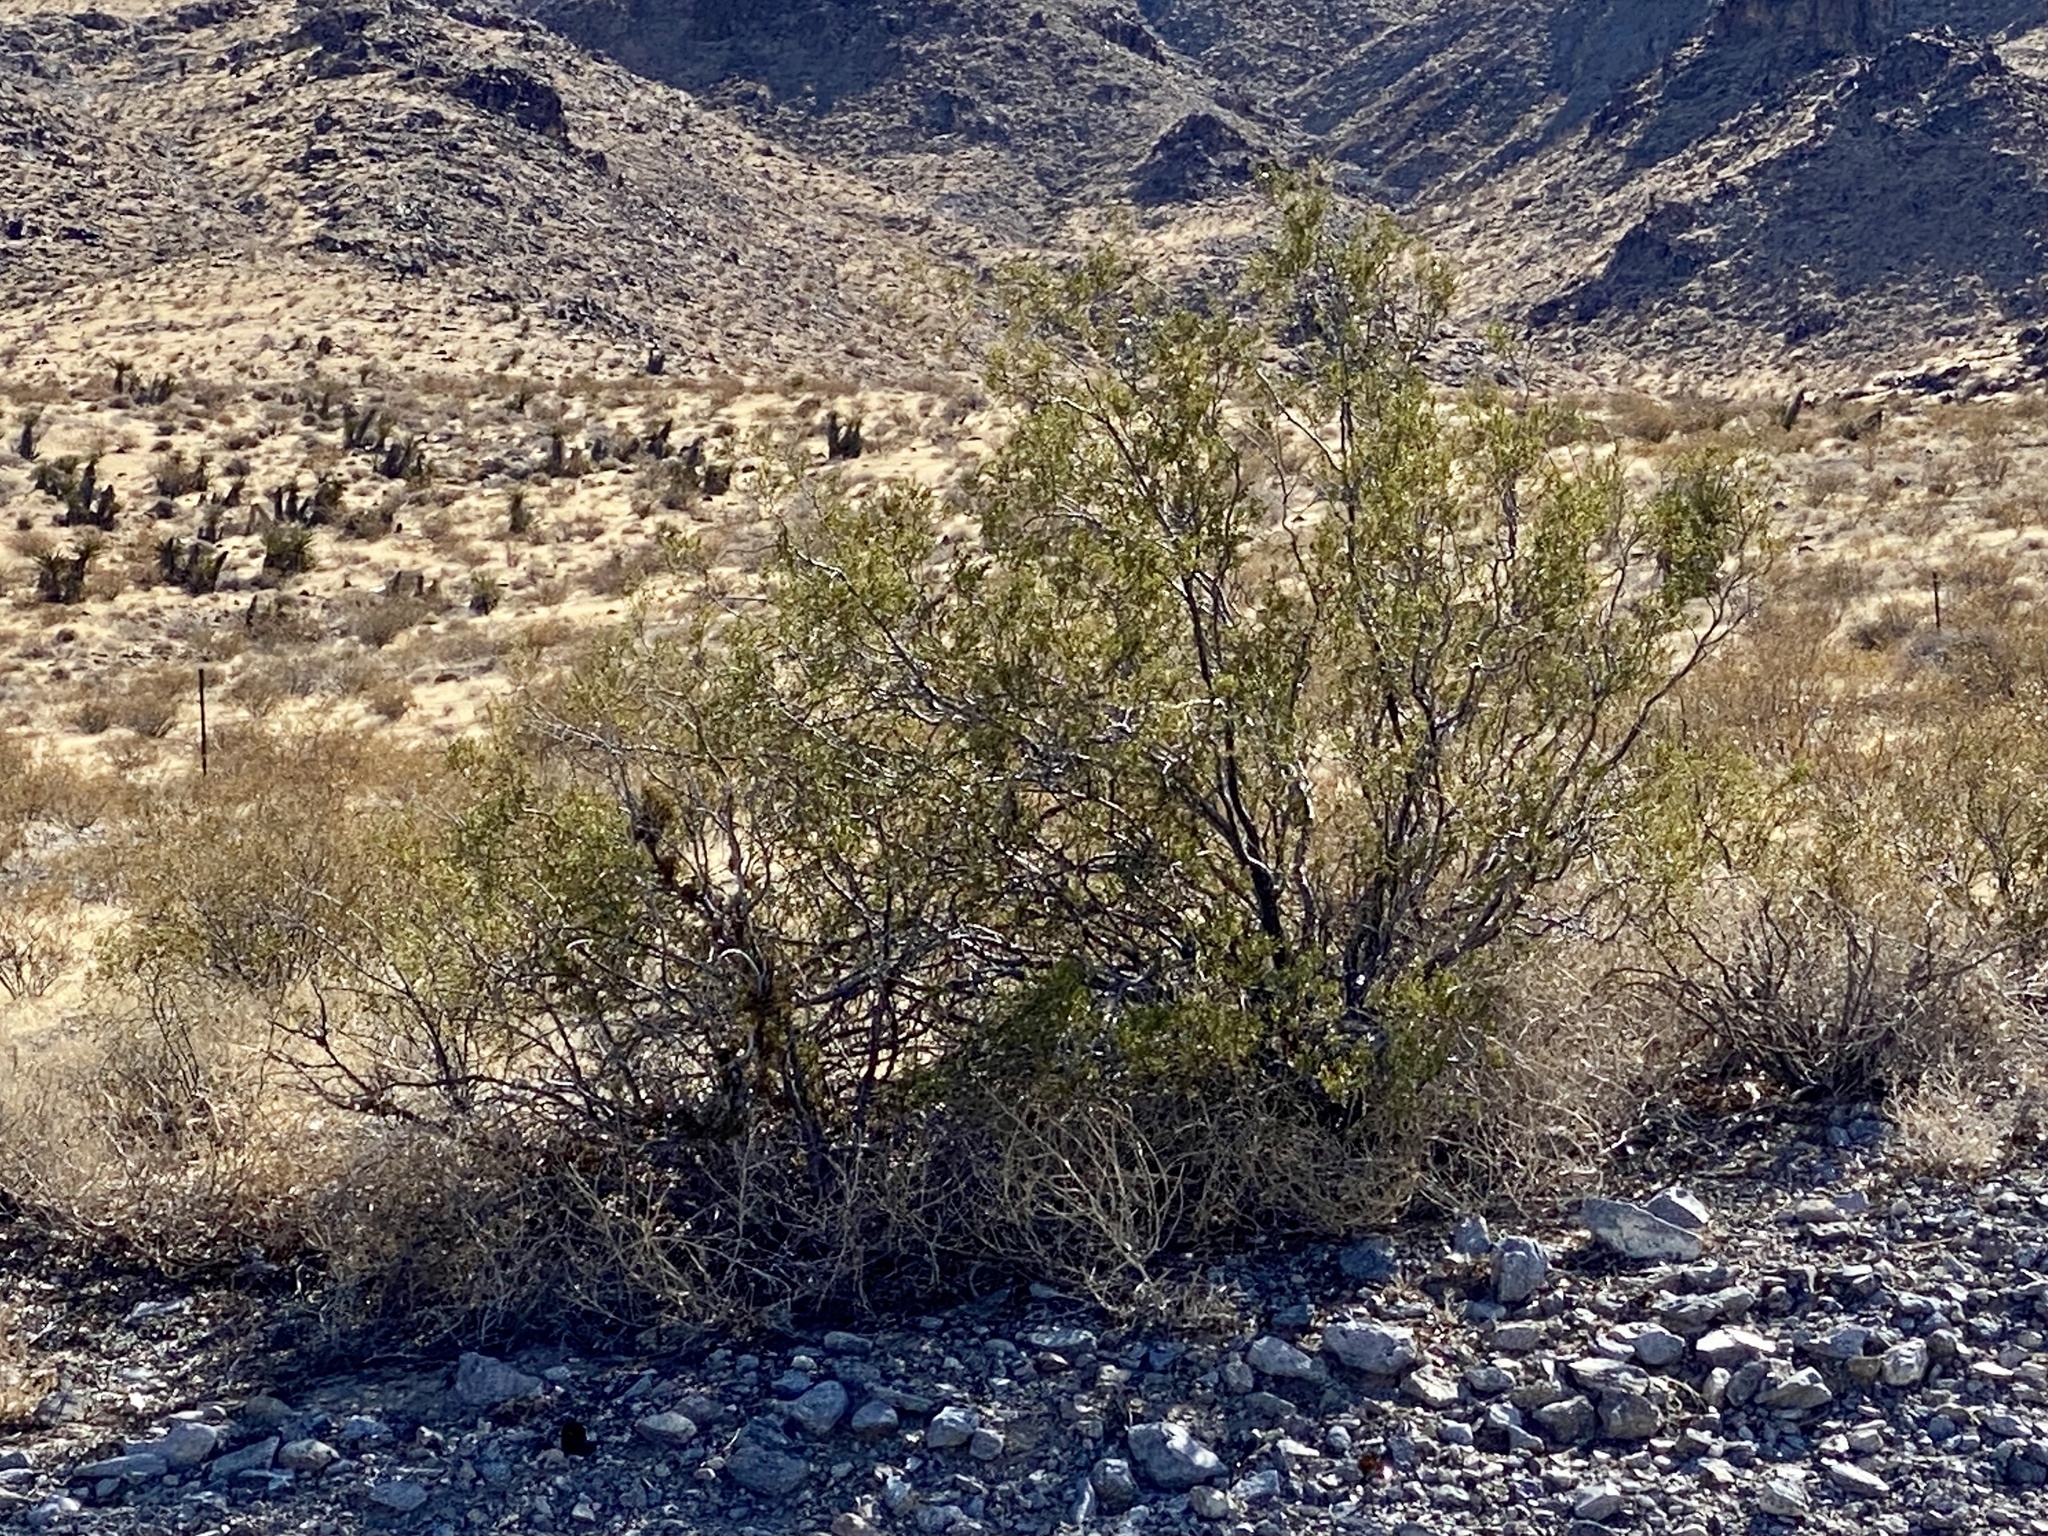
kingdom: Plantae
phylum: Tracheophyta
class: Magnoliopsida
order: Zygophyllales
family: Zygophyllaceae
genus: Larrea
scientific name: Larrea tridentata
